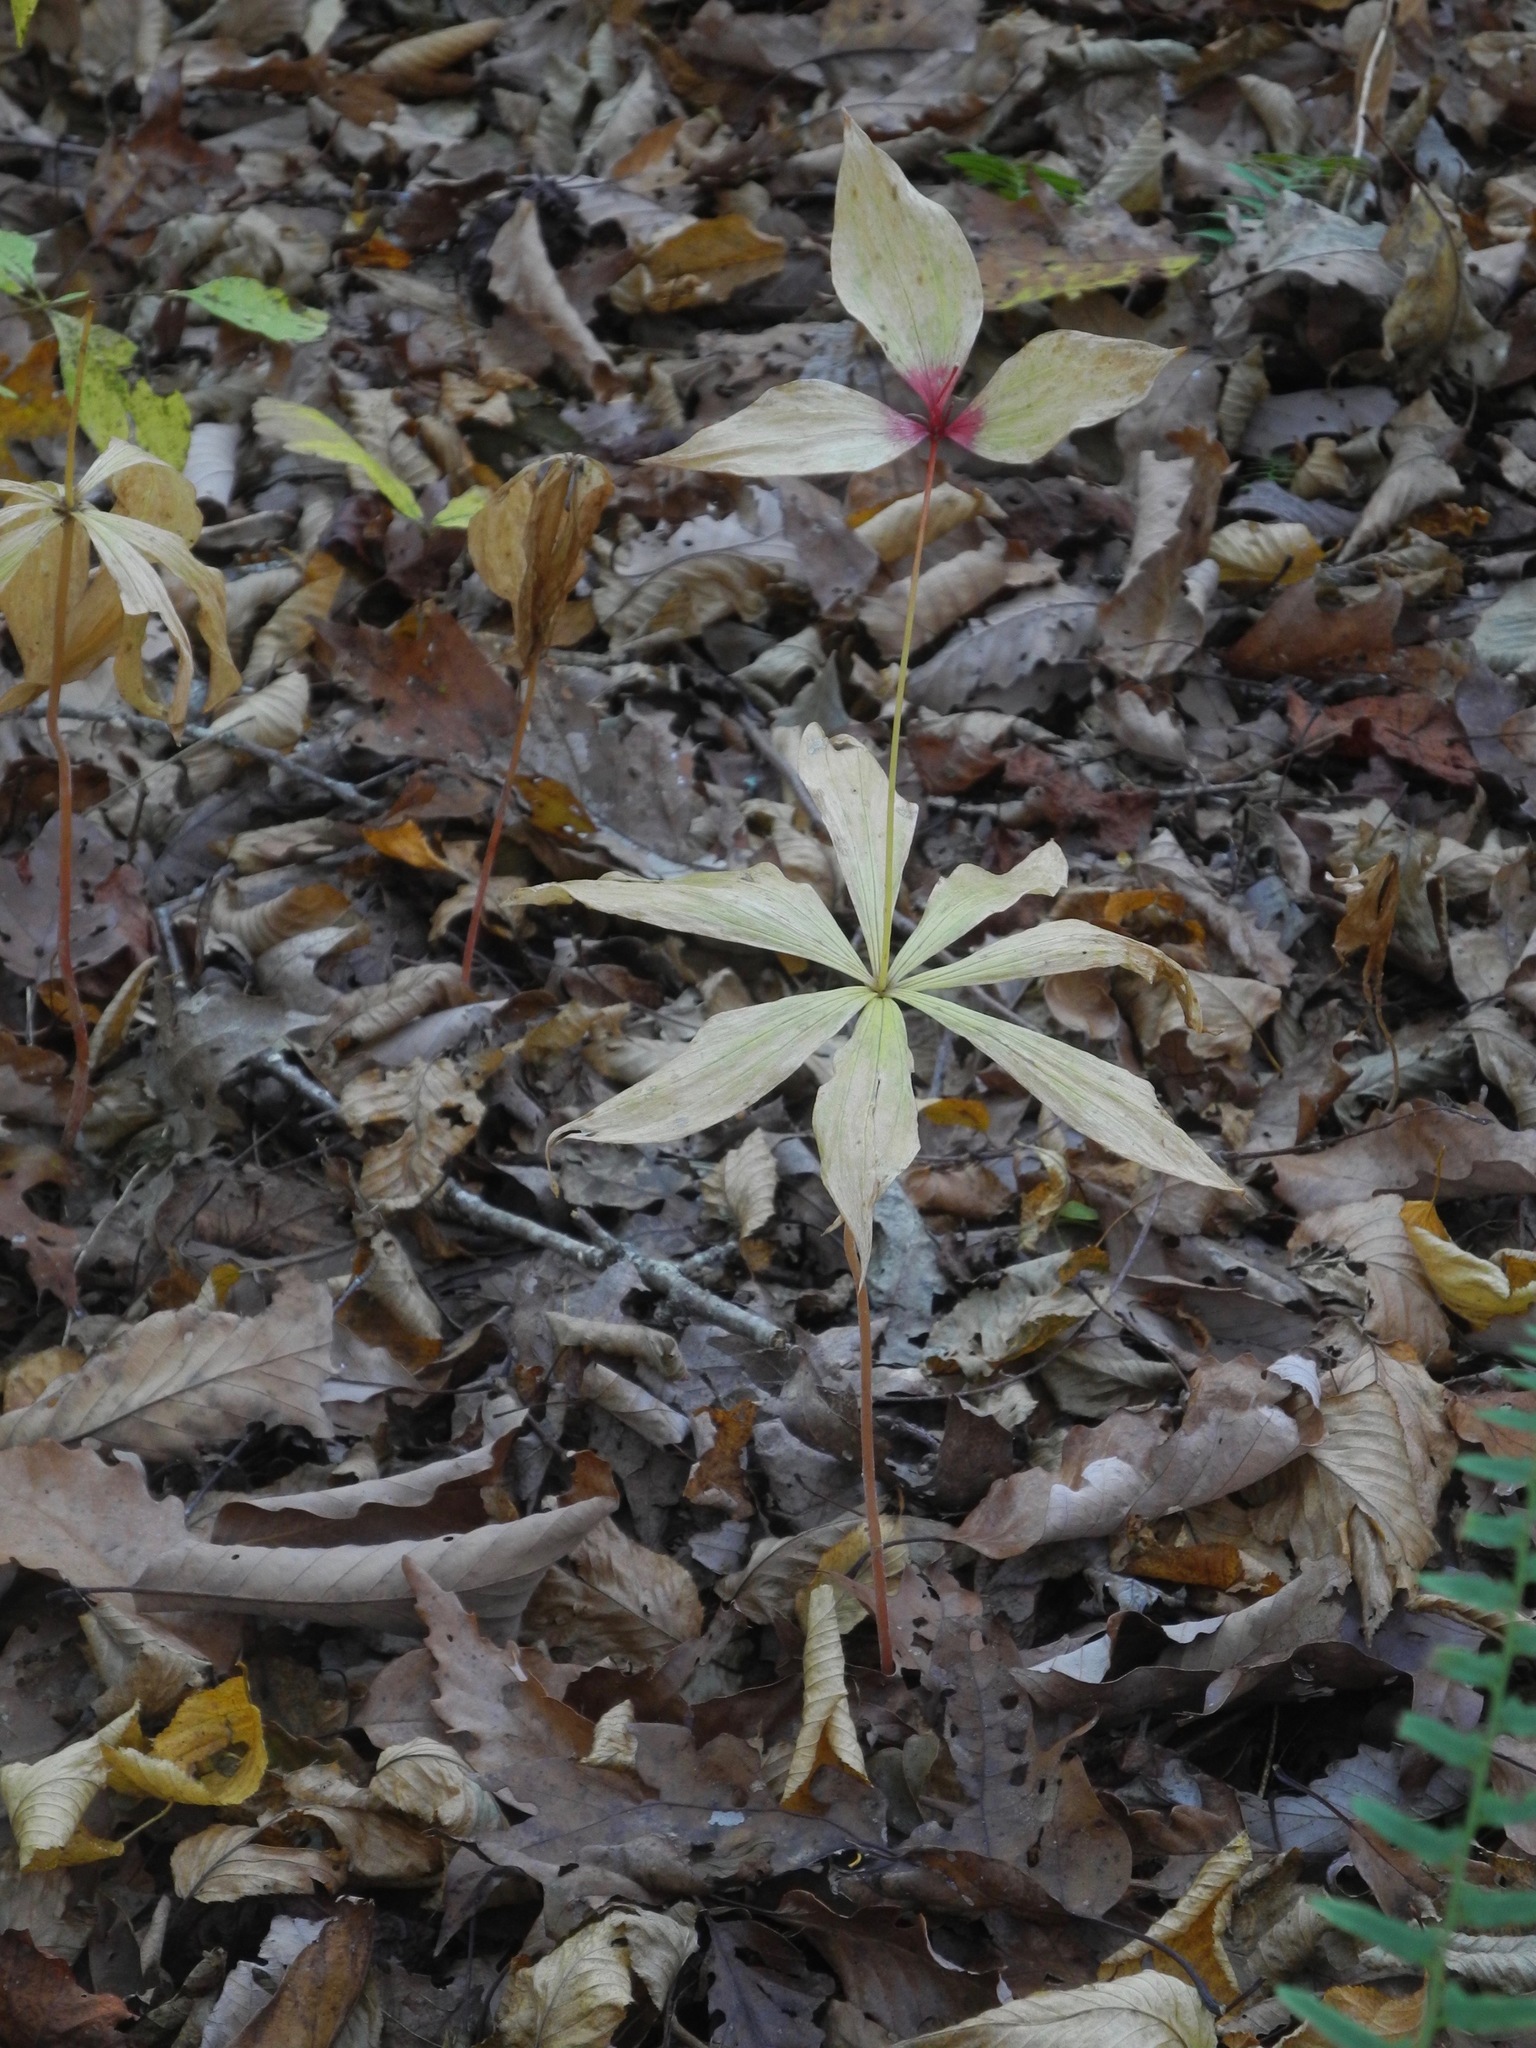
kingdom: Plantae
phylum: Tracheophyta
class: Liliopsida
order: Liliales
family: Liliaceae
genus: Medeola
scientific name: Medeola virginiana
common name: Indian cucumber-root
